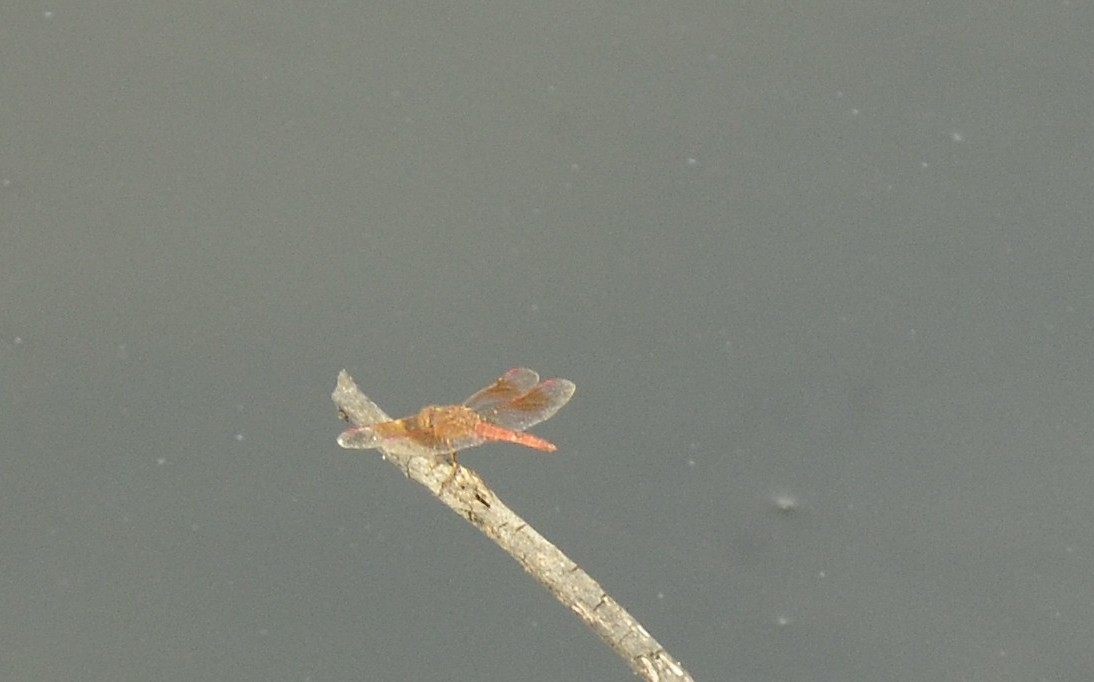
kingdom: Animalia
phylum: Arthropoda
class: Insecta
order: Odonata
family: Libellulidae
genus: Brachythemis
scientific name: Brachythemis contaminata
